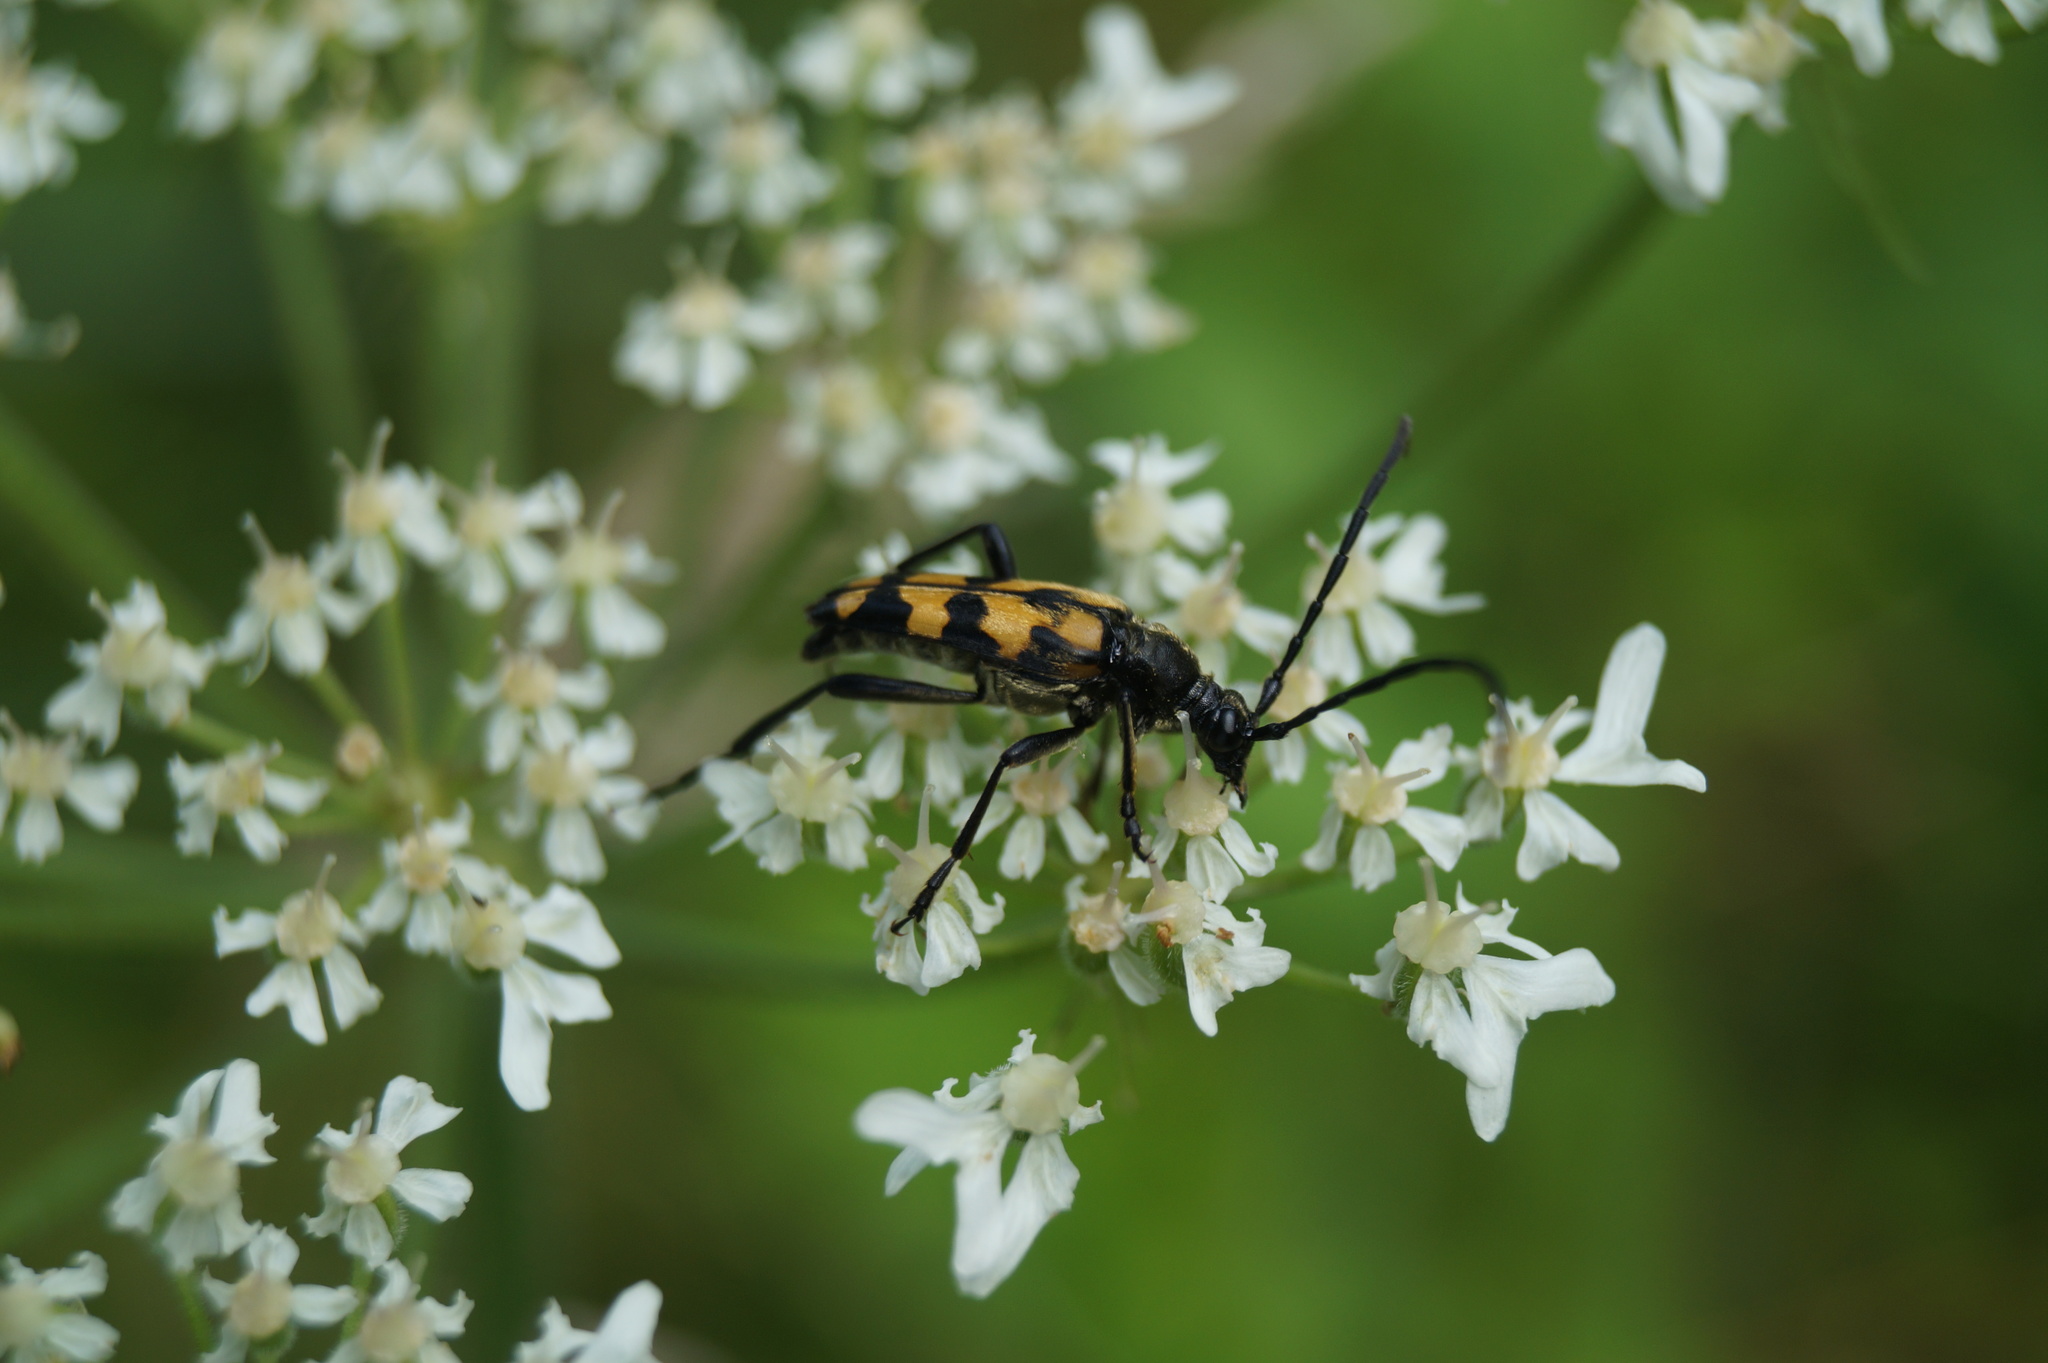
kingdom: Animalia
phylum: Arthropoda
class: Insecta
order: Coleoptera
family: Cerambycidae
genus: Leptura
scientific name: Leptura quadrifasciata
